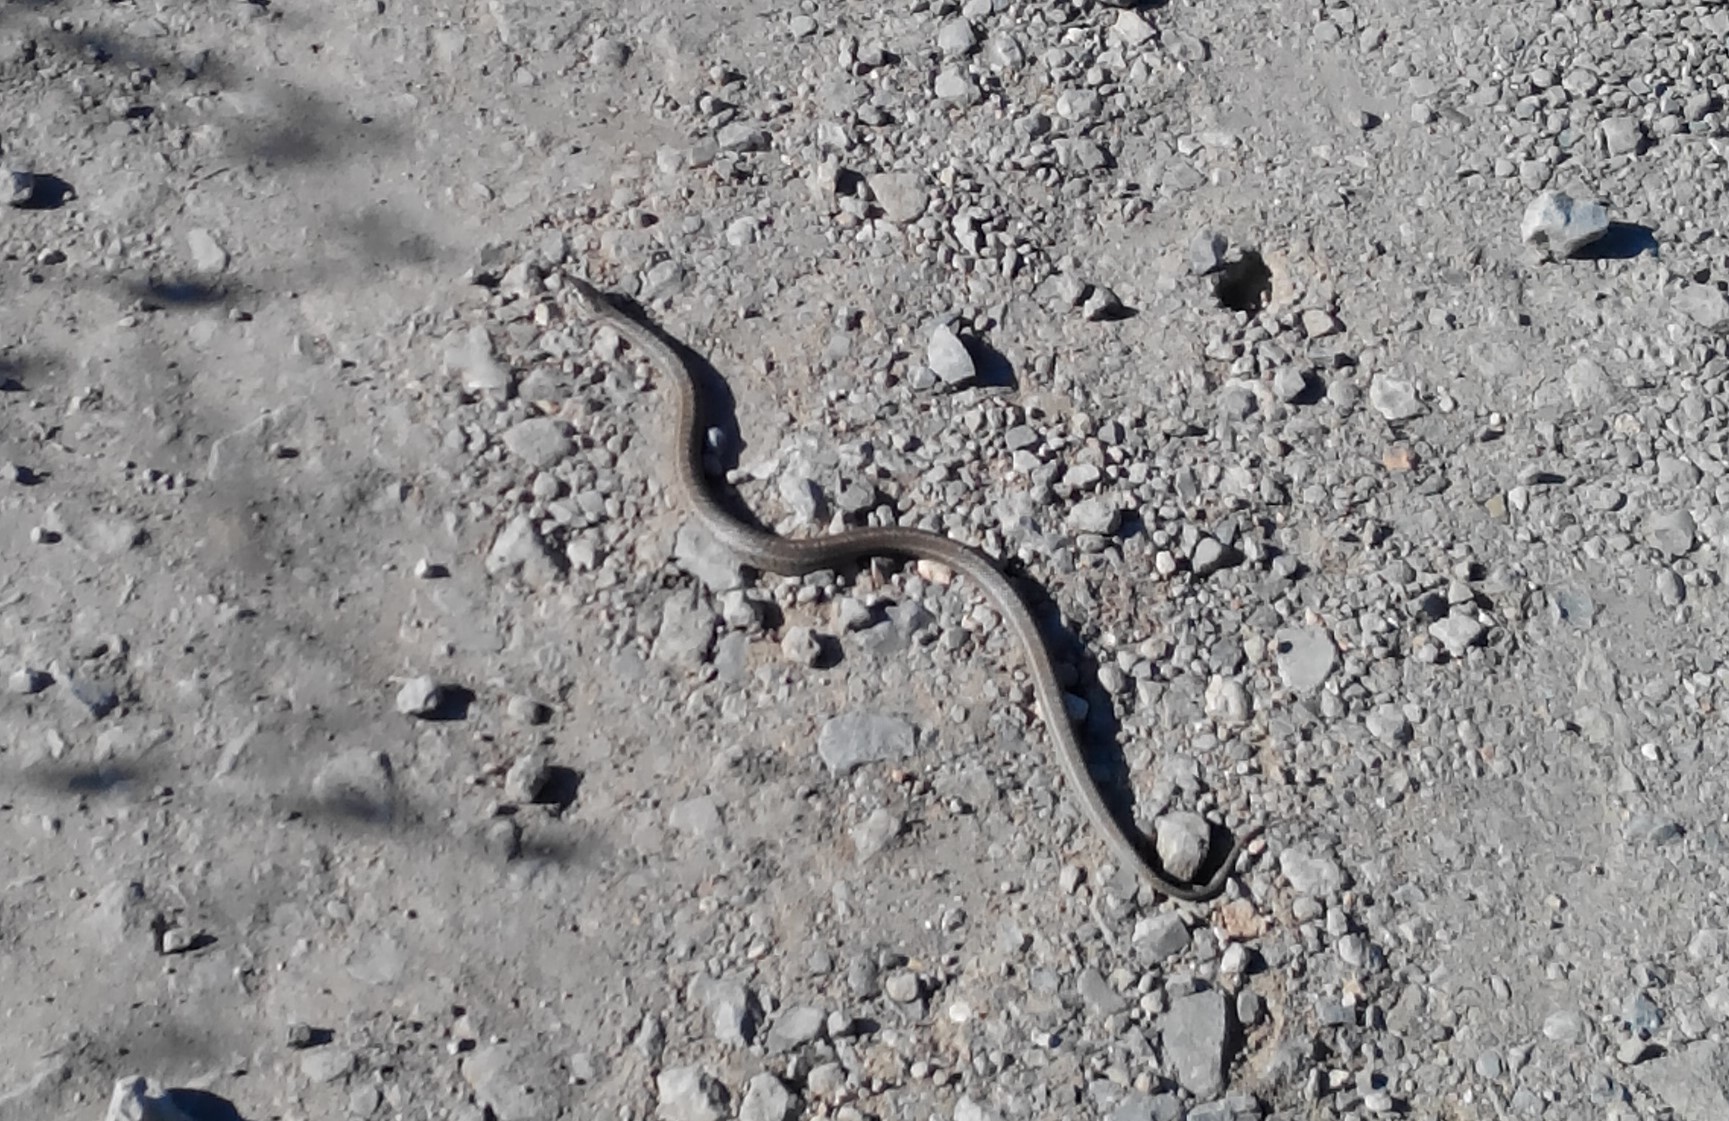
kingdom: Animalia
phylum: Chordata
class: Squamata
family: Colubridae
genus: Elaphe
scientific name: Elaphe dione
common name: Dione ratsnake
